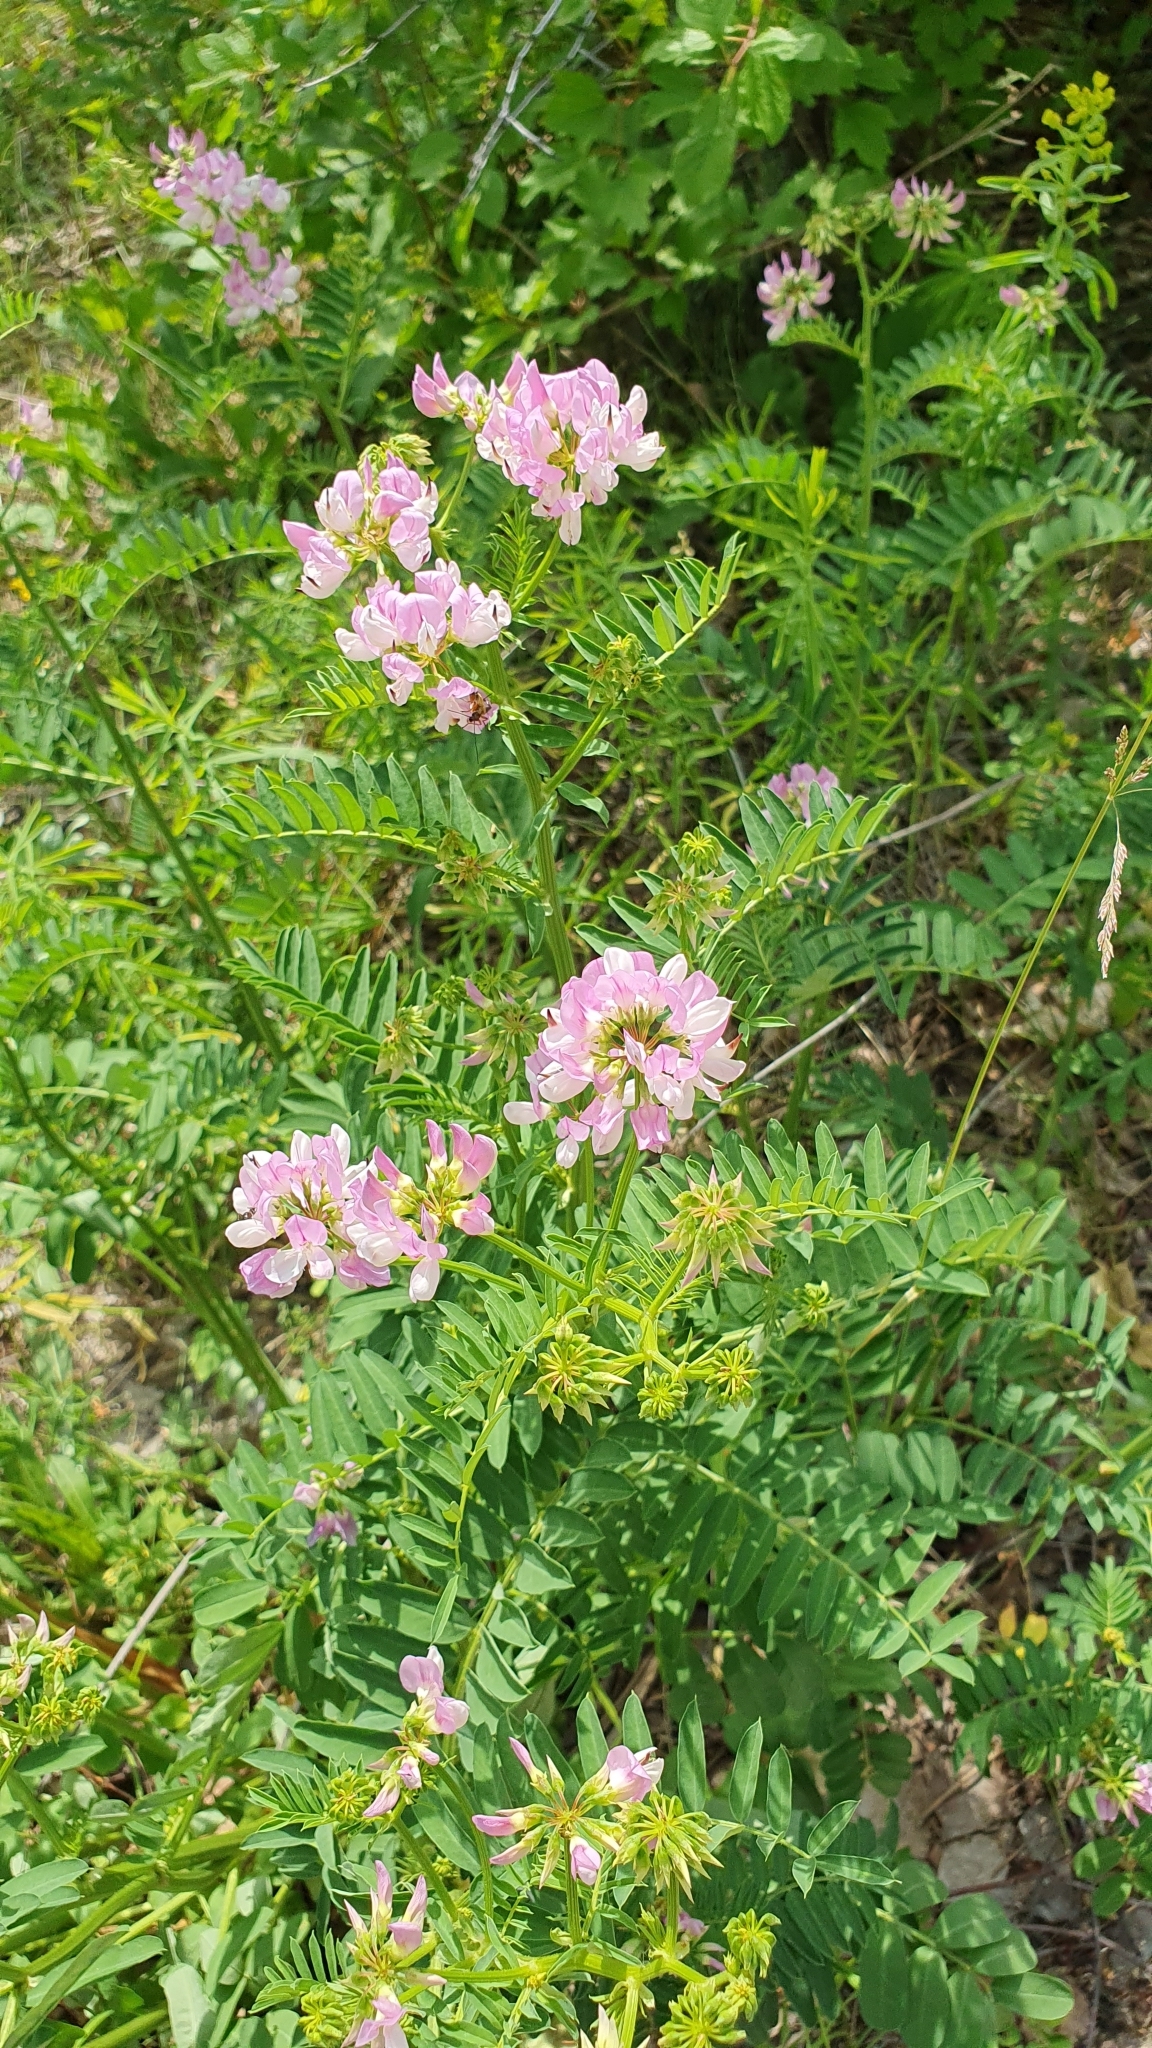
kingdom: Plantae
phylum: Tracheophyta
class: Magnoliopsida
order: Fabales
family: Fabaceae
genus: Coronilla
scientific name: Coronilla varia
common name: Crownvetch
